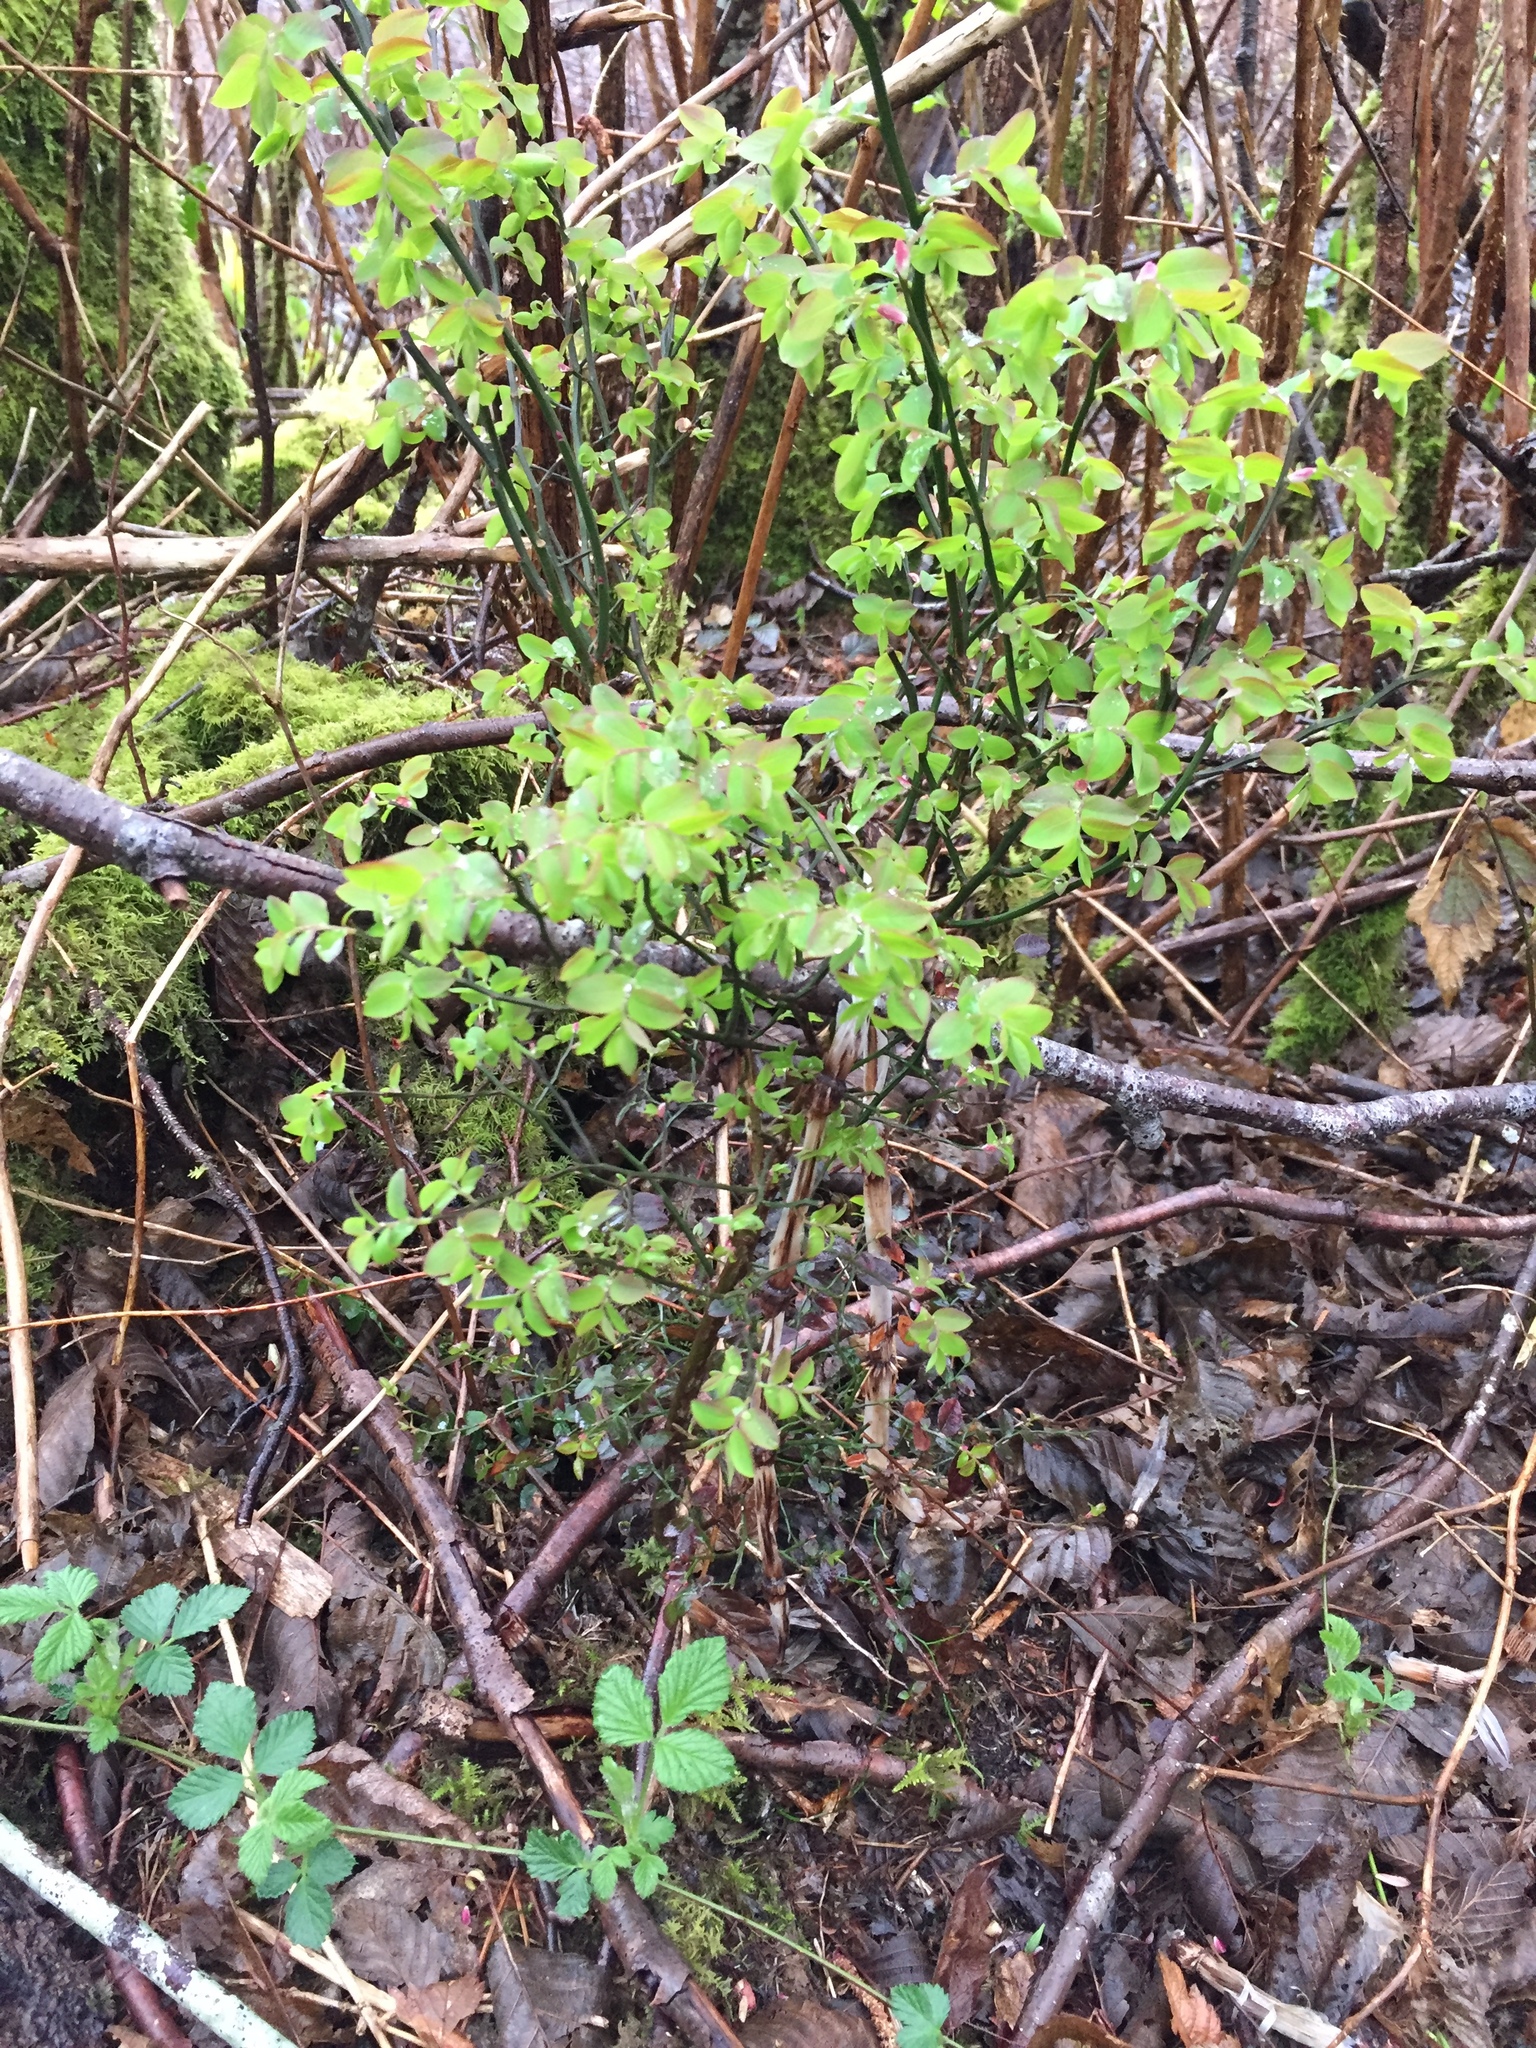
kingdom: Plantae
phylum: Tracheophyta
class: Magnoliopsida
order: Ericales
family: Ericaceae
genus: Vaccinium
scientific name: Vaccinium parvifolium
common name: Red-huckleberry
